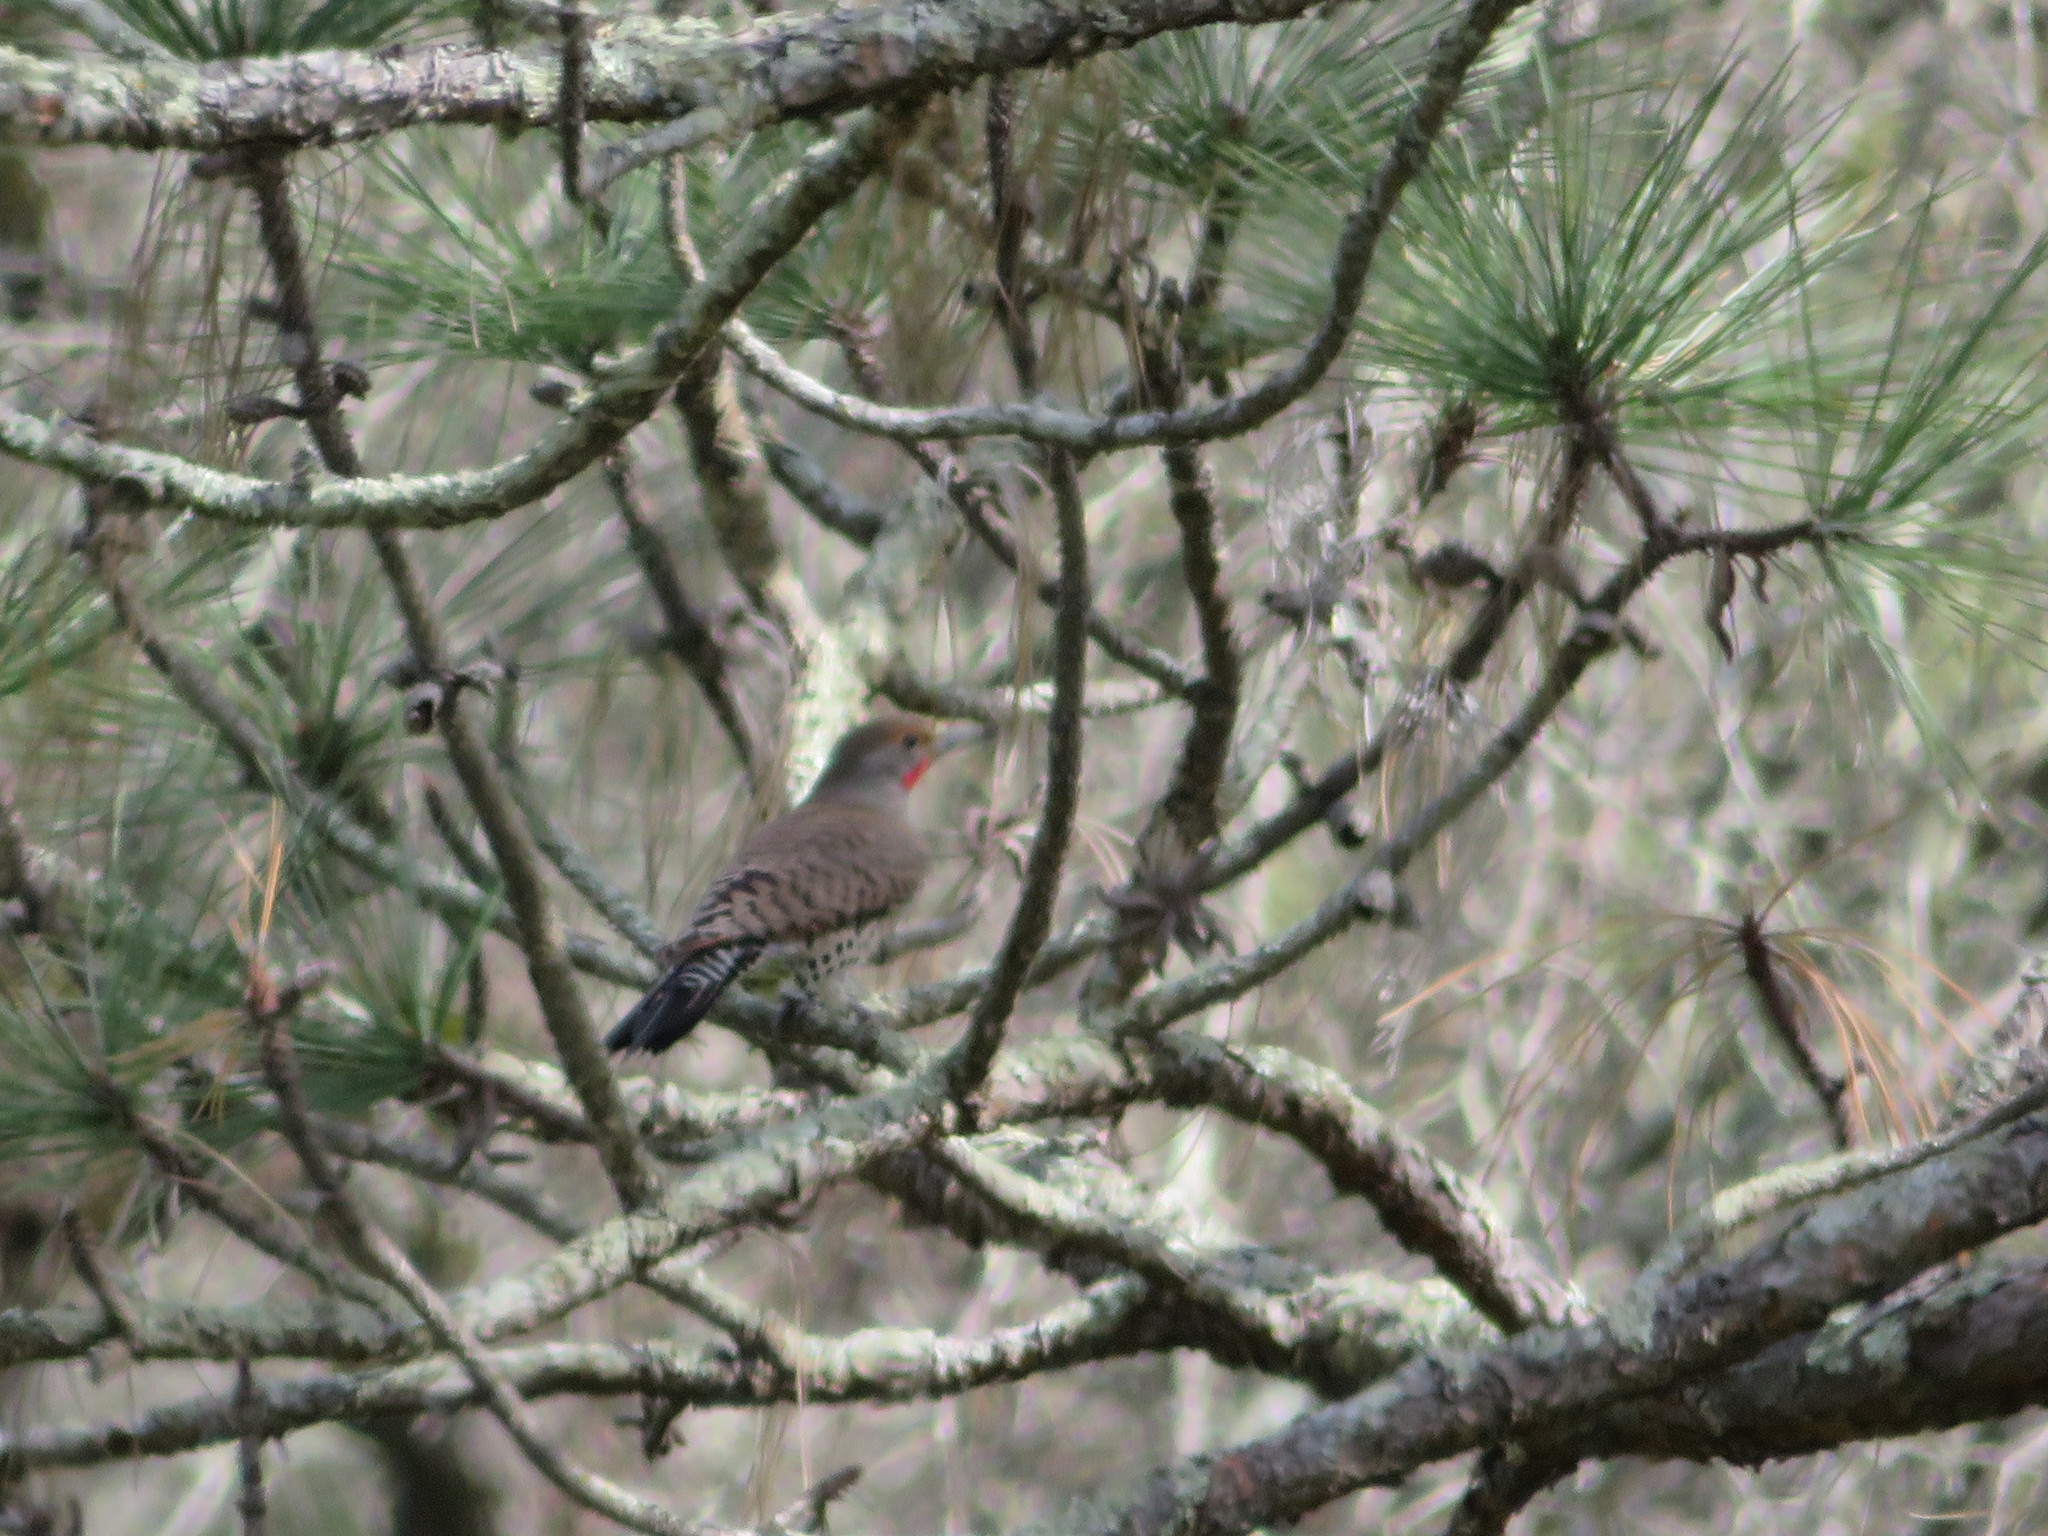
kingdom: Animalia
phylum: Chordata
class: Aves
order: Piciformes
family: Picidae
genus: Colaptes
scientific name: Colaptes auratus
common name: Northern flicker
